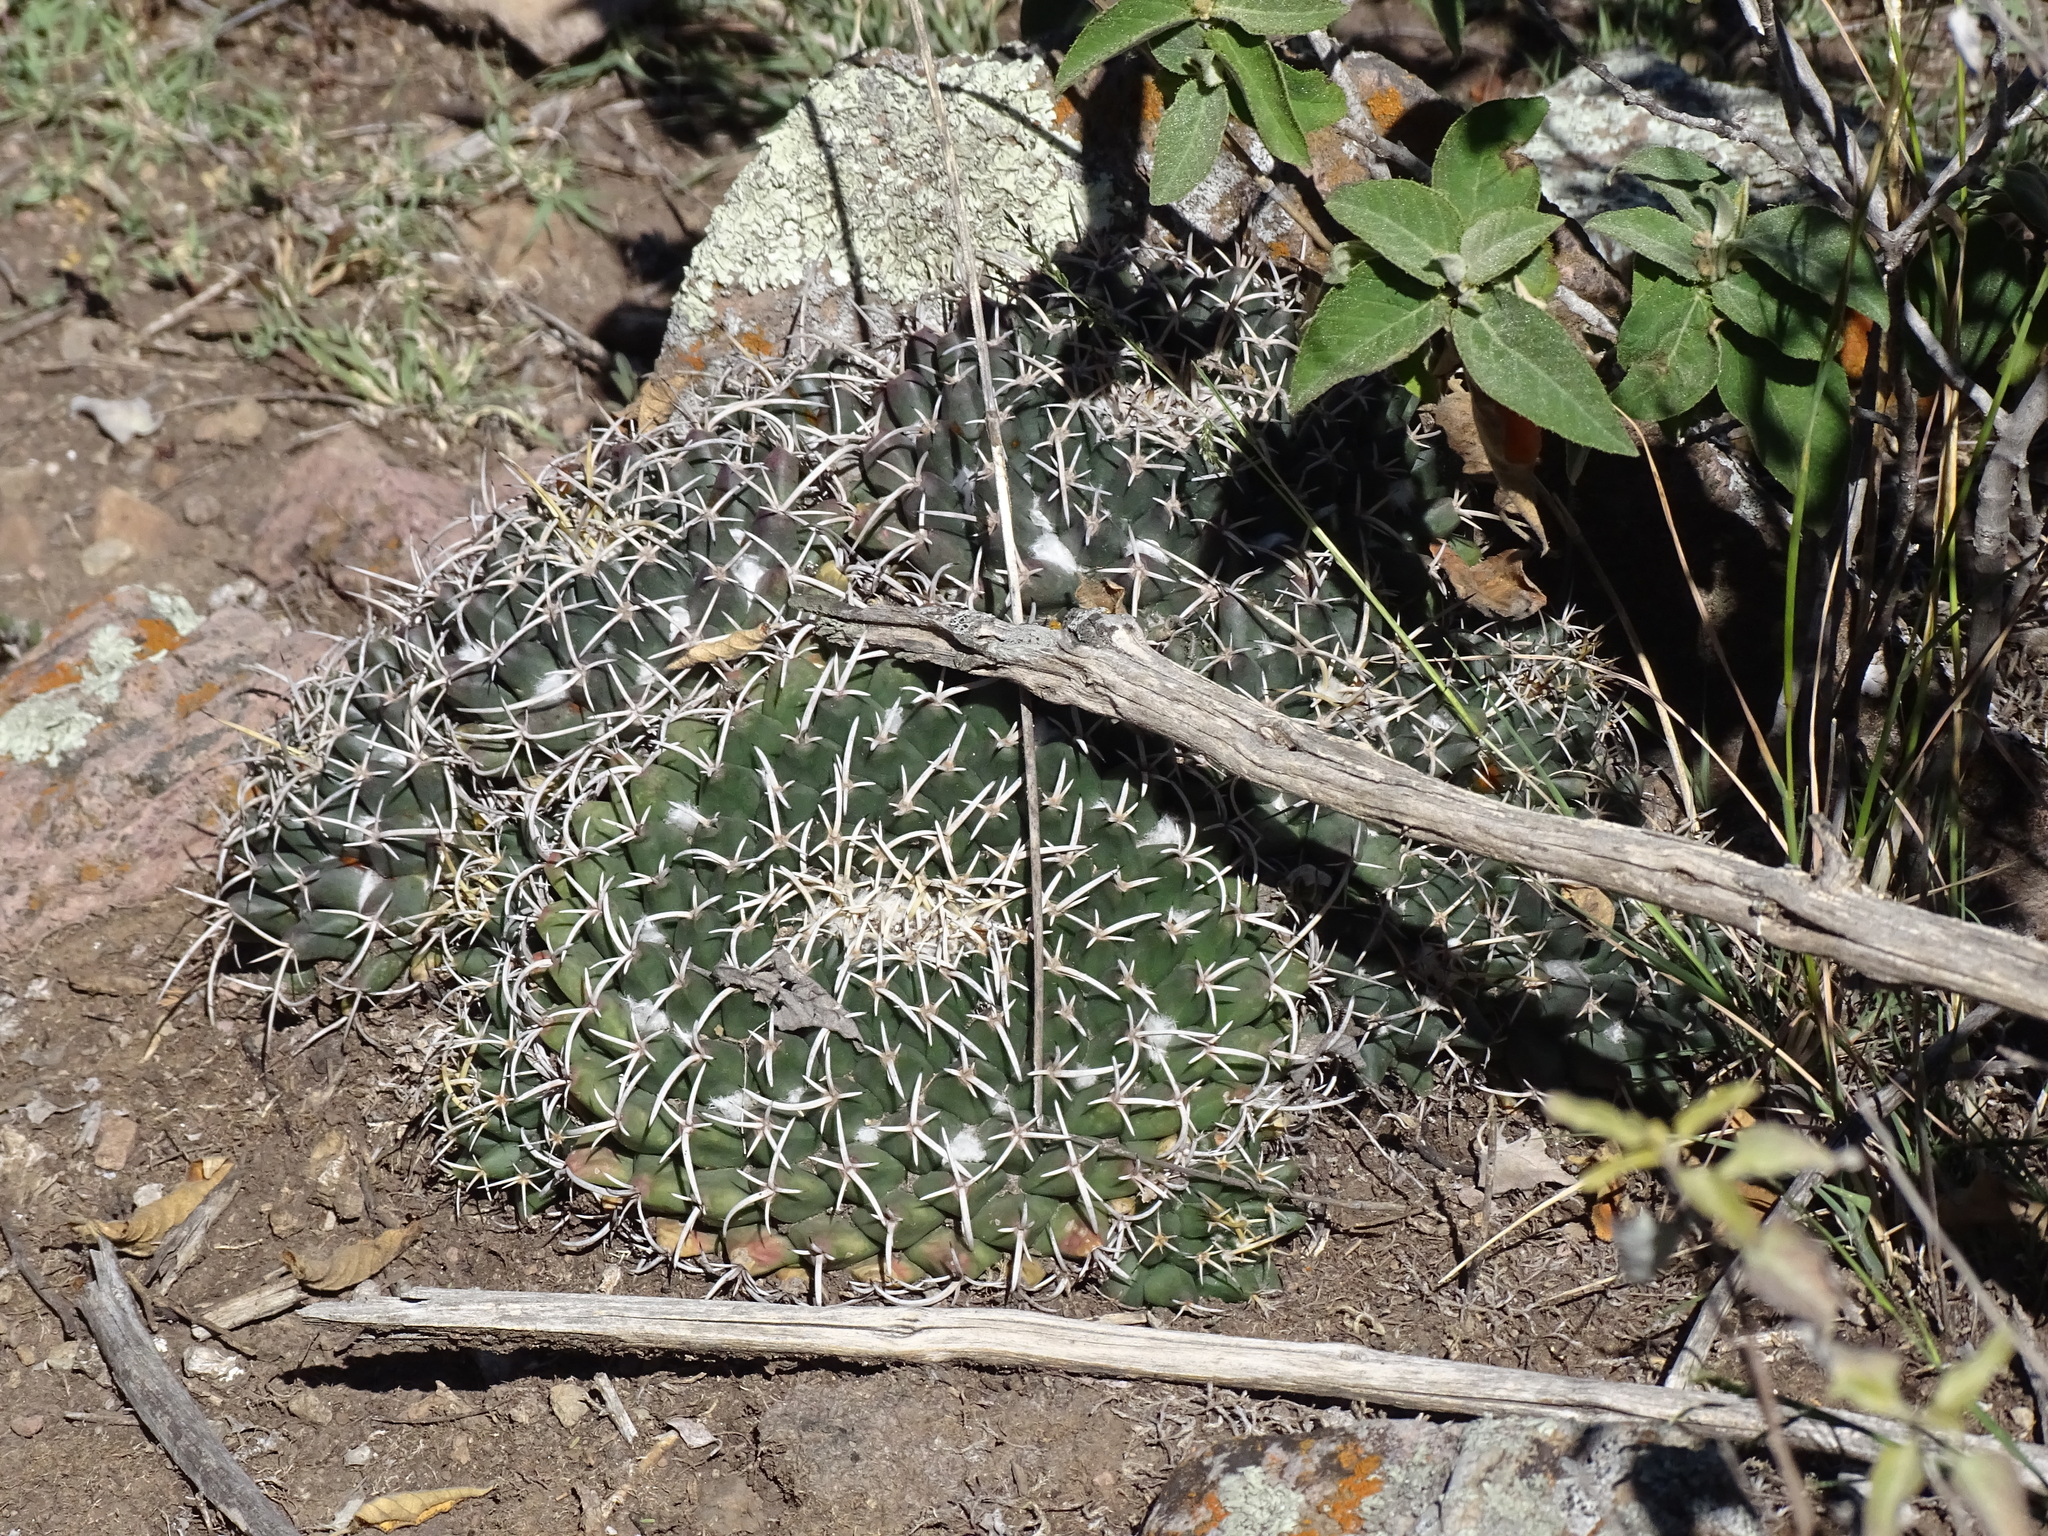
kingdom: Plantae
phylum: Tracheophyta
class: Magnoliopsida
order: Caryophyllales
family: Cactaceae
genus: Mammillaria
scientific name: Mammillaria magnimamma
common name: Mexican pincushion
